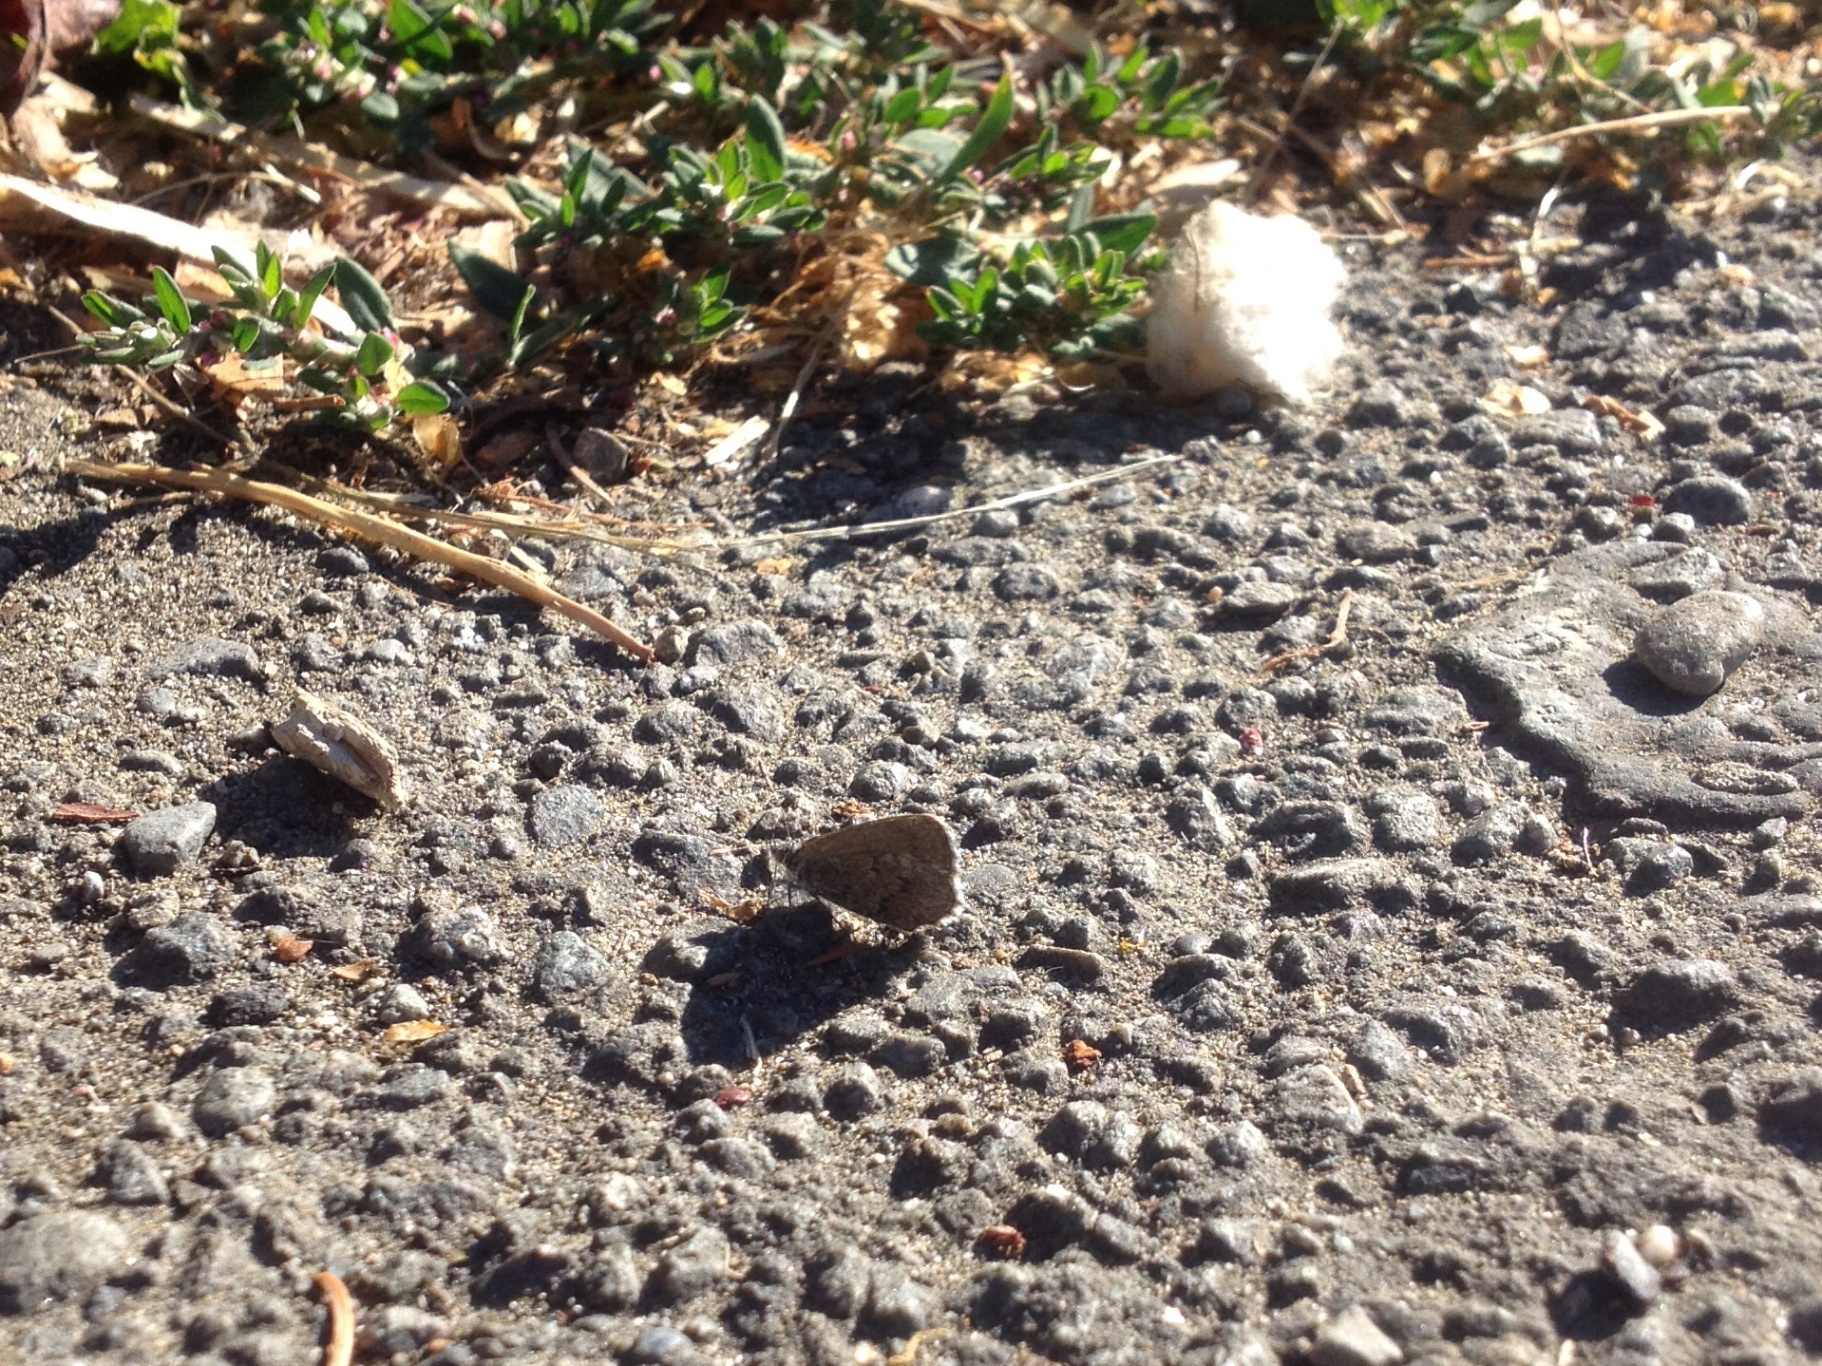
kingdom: Animalia
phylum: Arthropoda
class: Insecta
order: Lepidoptera
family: Lycaenidae
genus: Zizina
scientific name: Zizina oxleyi
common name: Southern blue
